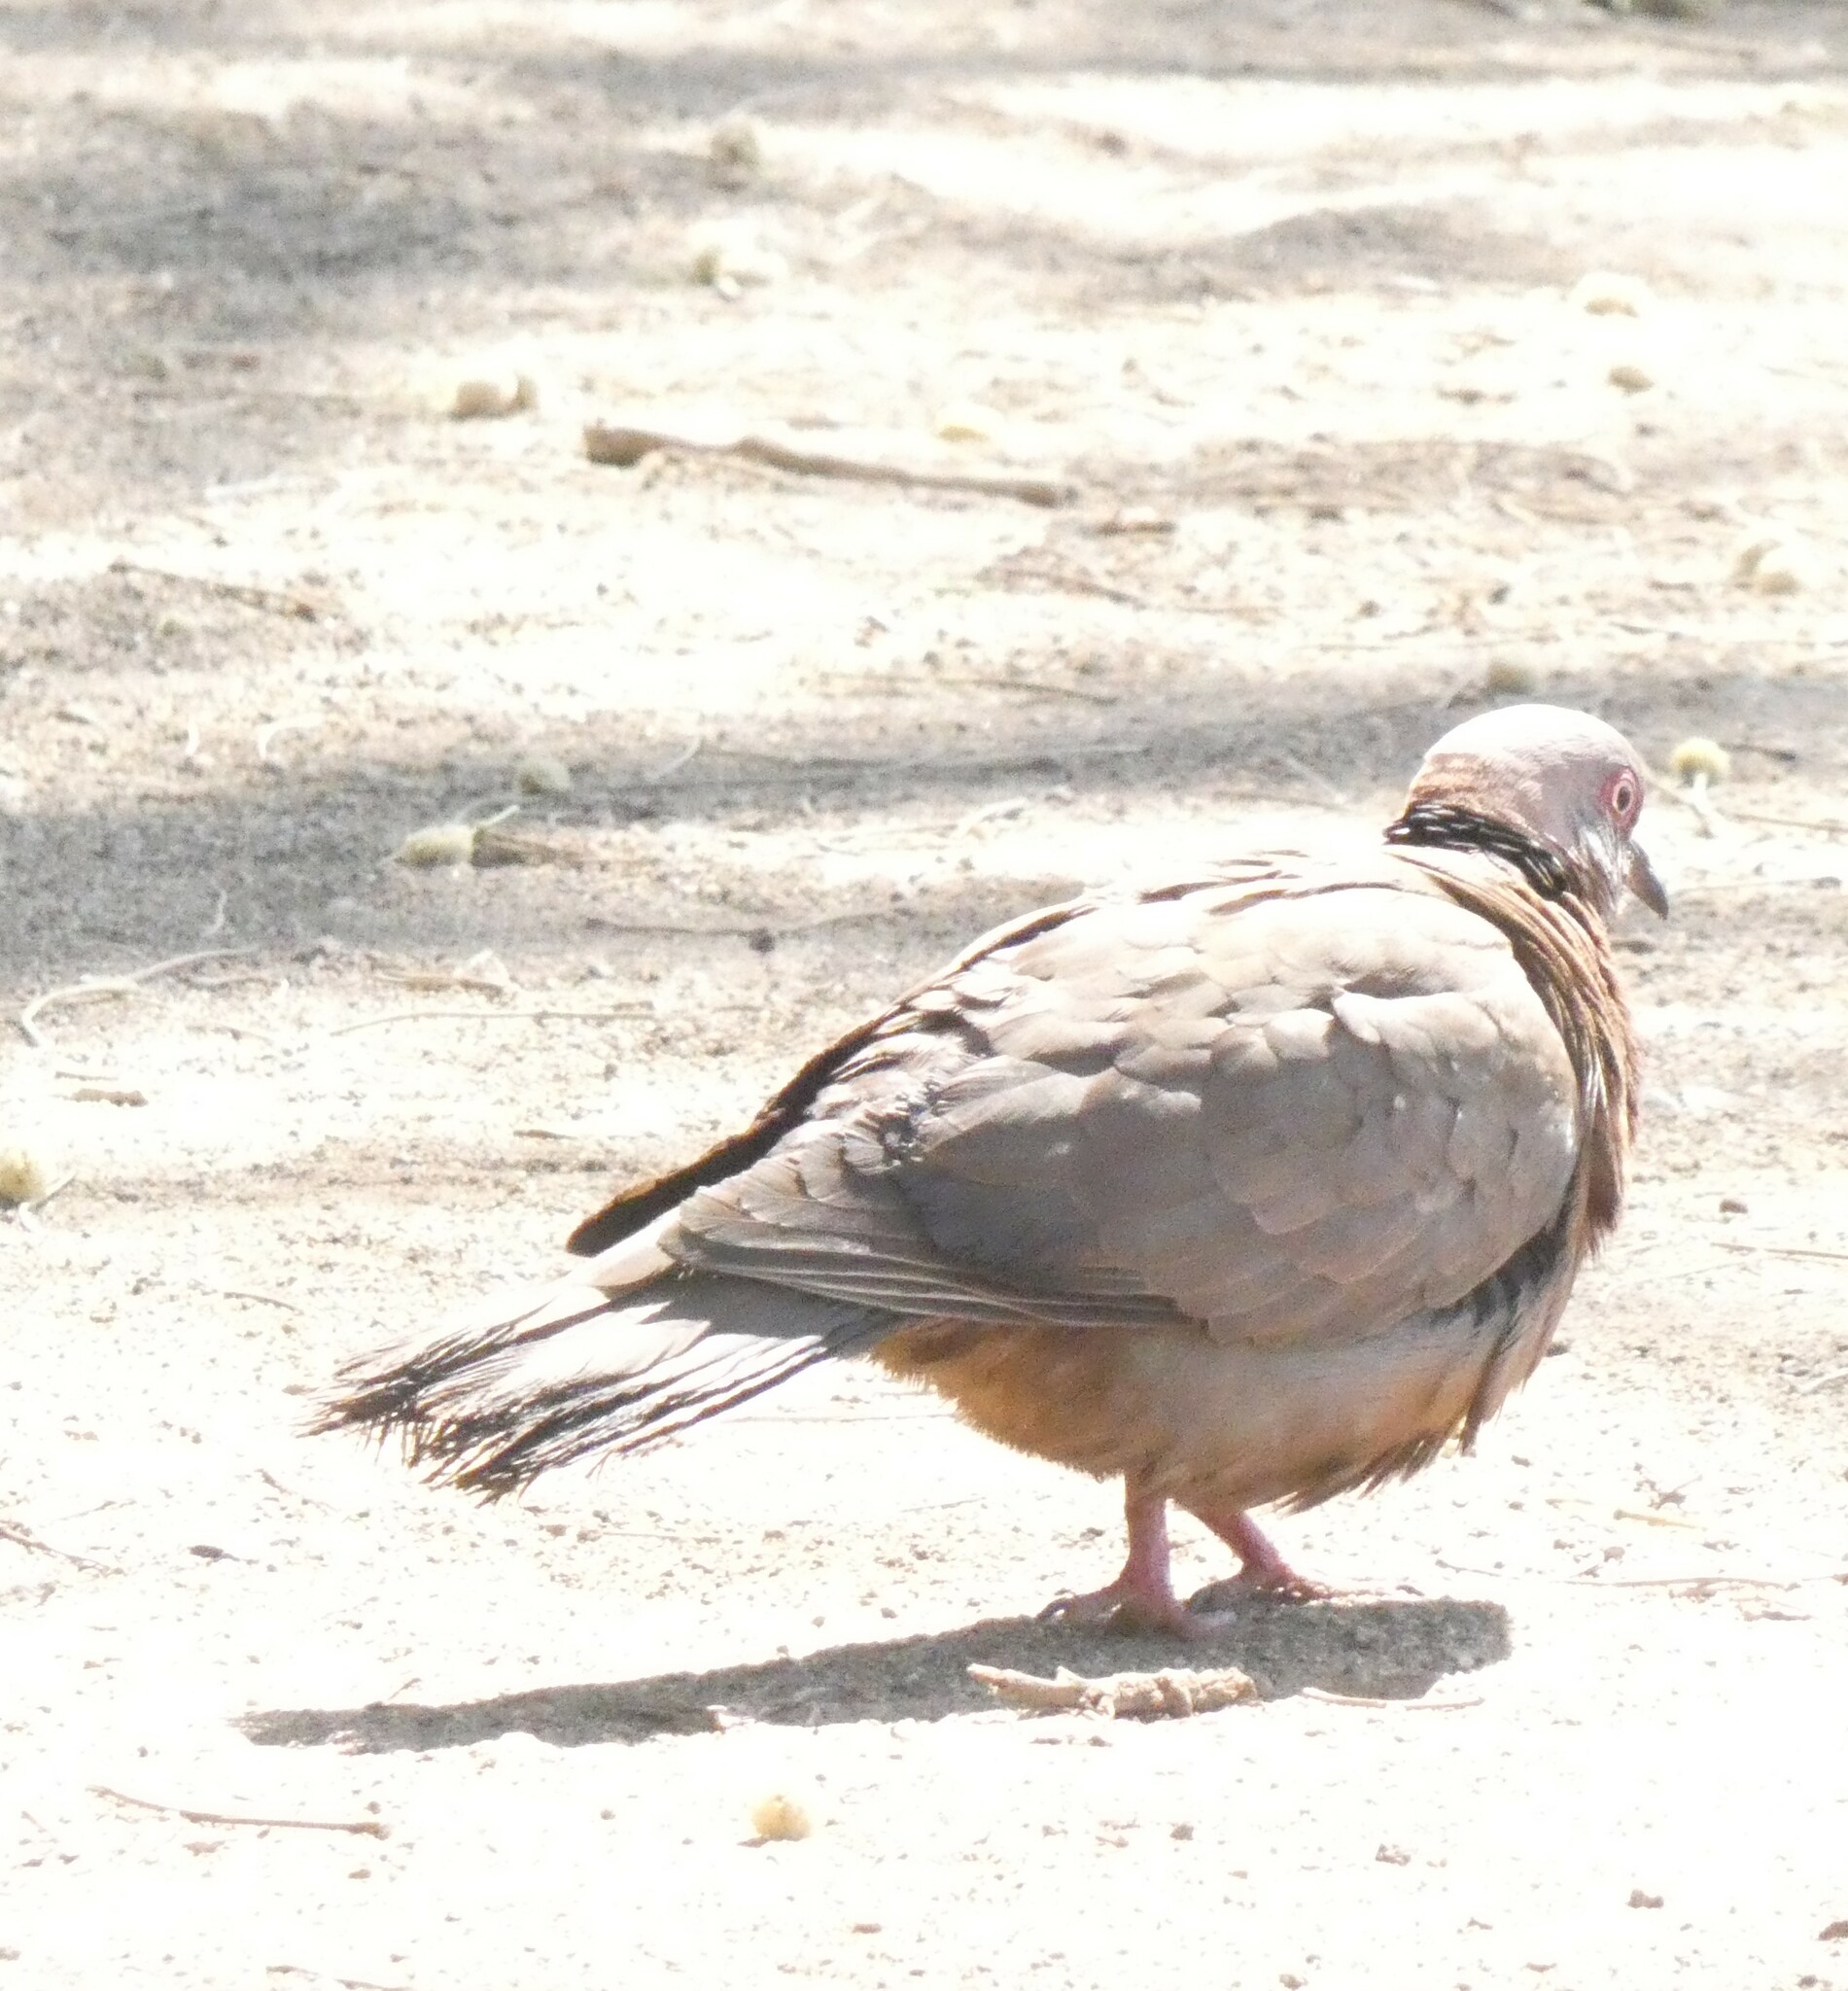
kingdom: Animalia
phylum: Chordata
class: Aves
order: Columbiformes
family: Columbidae
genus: Streptopelia
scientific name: Streptopelia decipiens
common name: Mourning collared dove
